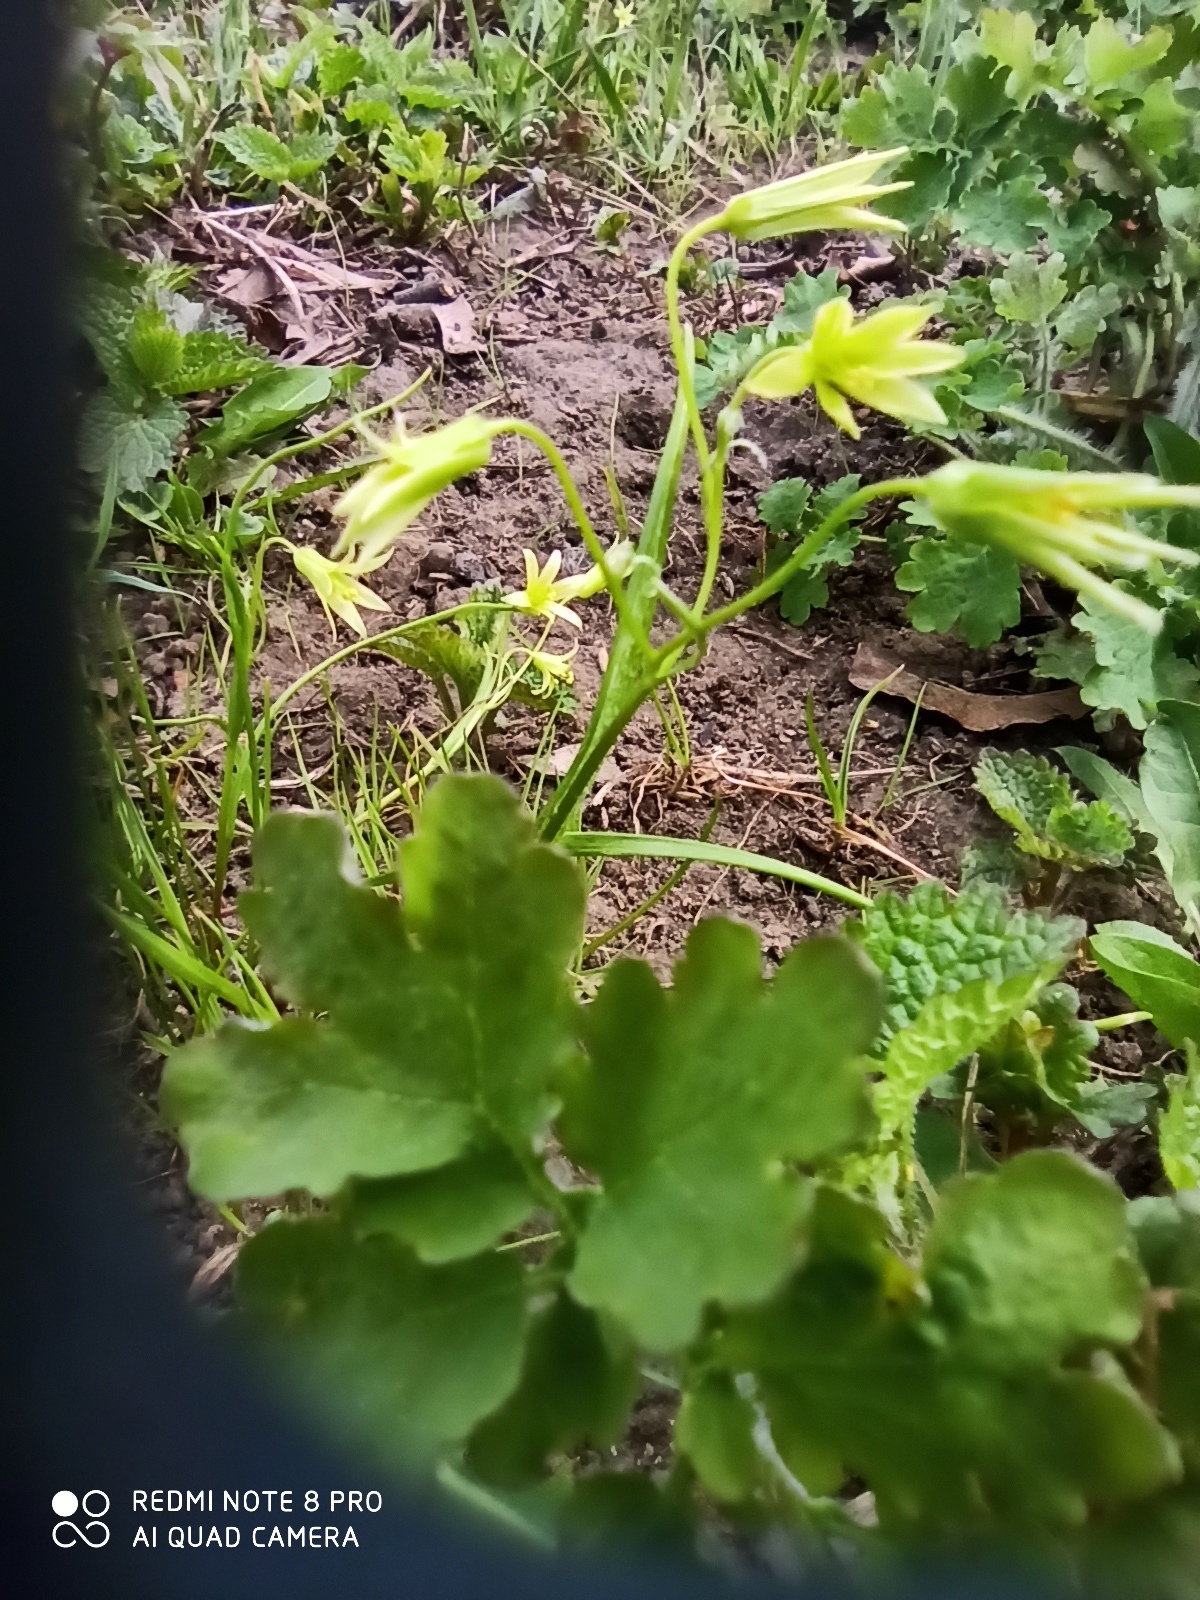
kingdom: Plantae
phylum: Tracheophyta
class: Liliopsida
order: Liliales
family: Liliaceae
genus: Gagea
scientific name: Gagea minima
